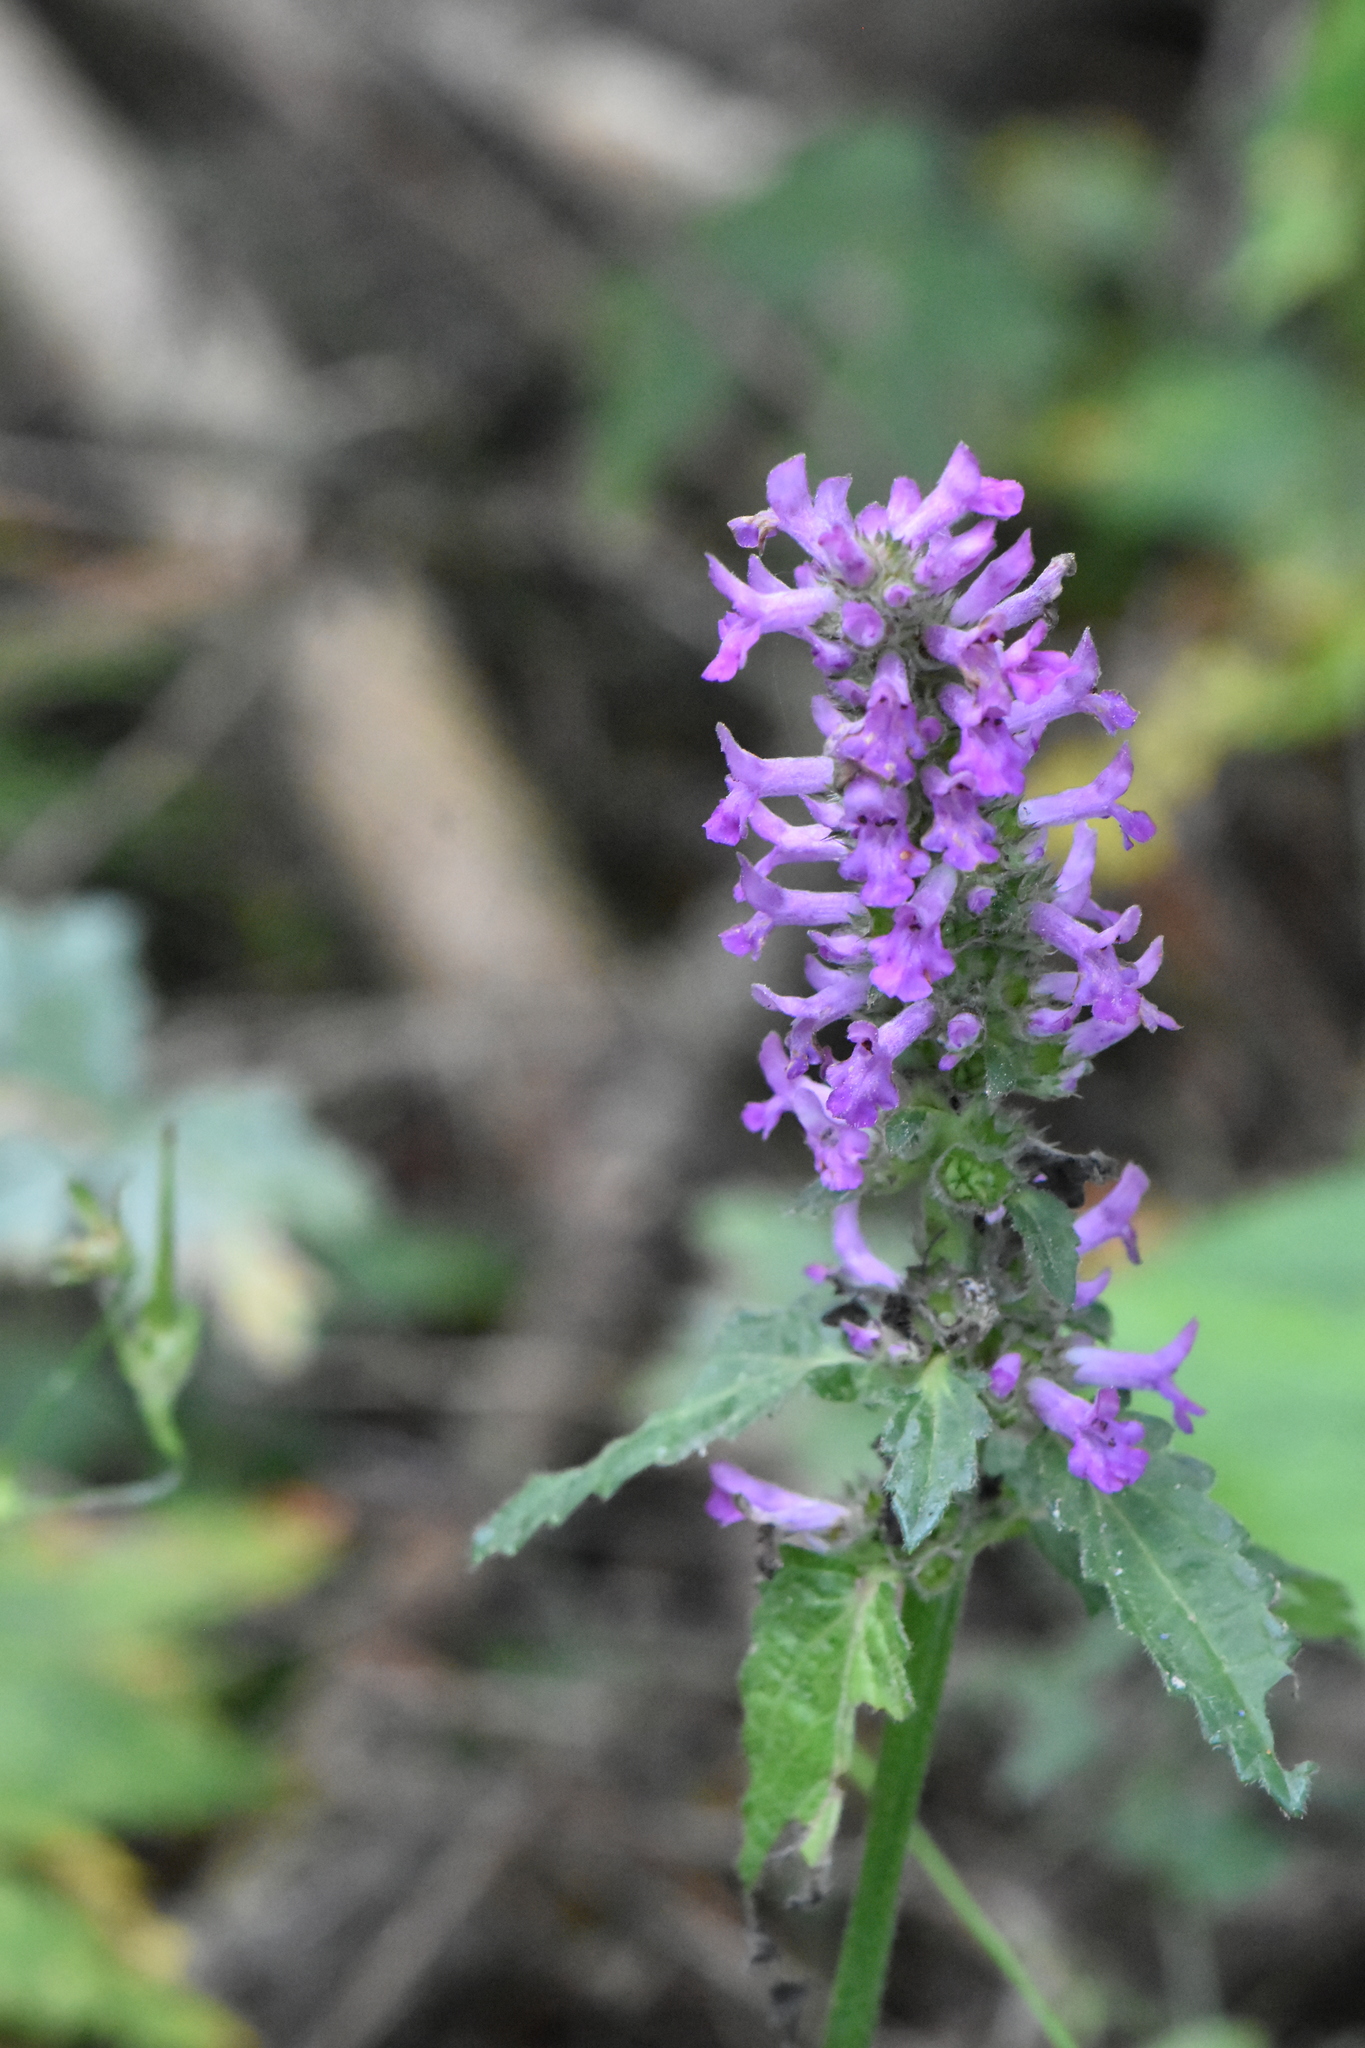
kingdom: Plantae
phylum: Tracheophyta
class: Magnoliopsida
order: Lamiales
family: Lamiaceae
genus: Betonica
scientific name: Betonica officinalis
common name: Bishop's-wort
